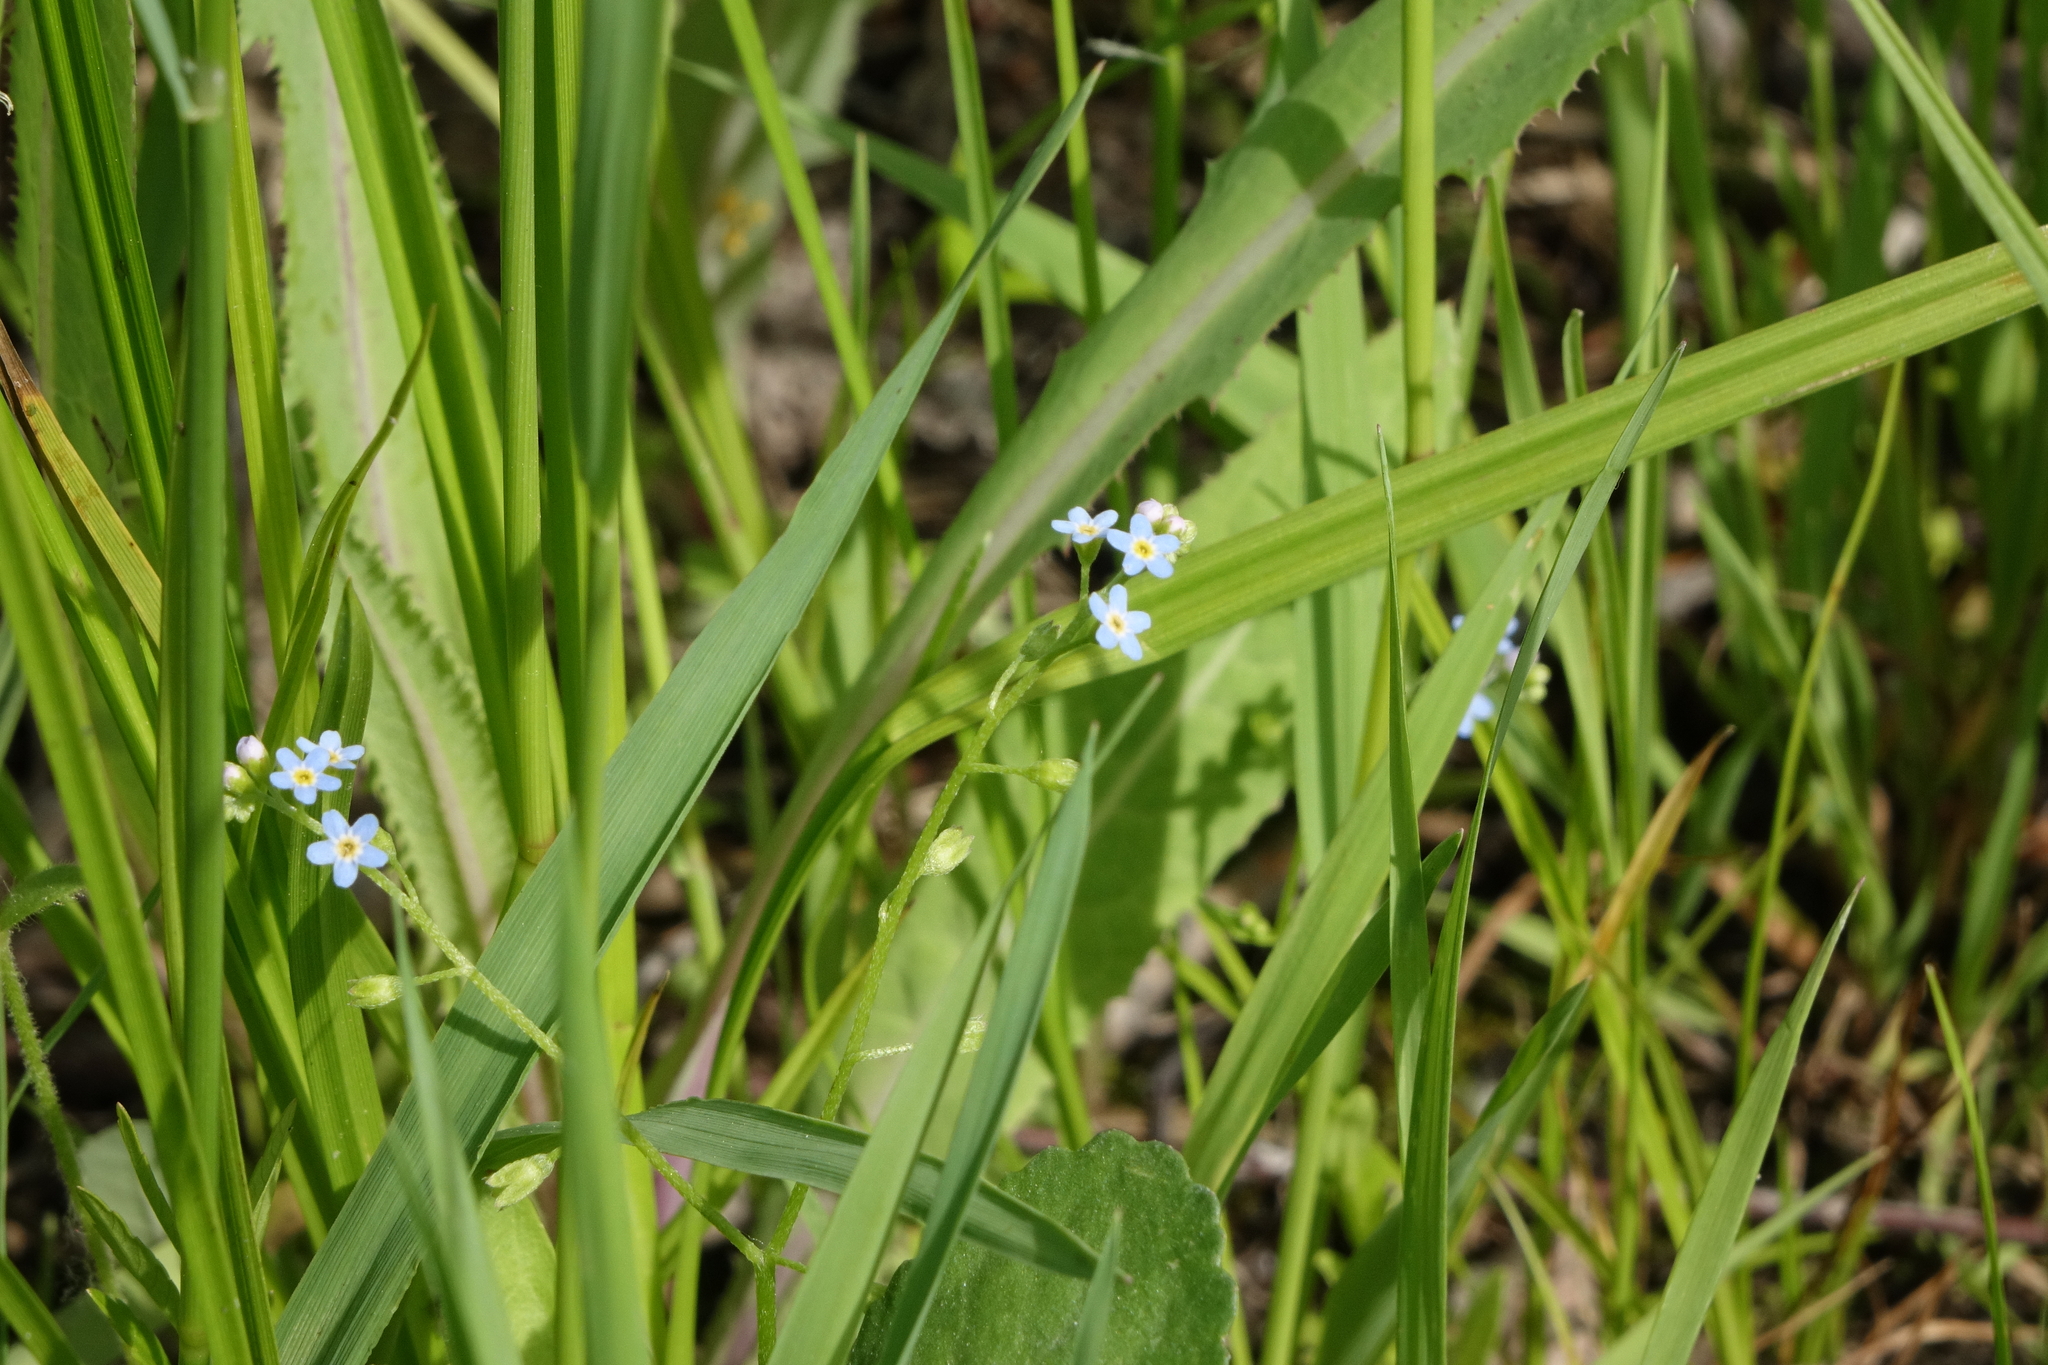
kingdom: Plantae
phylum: Tracheophyta
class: Magnoliopsida
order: Boraginales
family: Boraginaceae
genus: Myosotis
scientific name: Myosotis laxa
